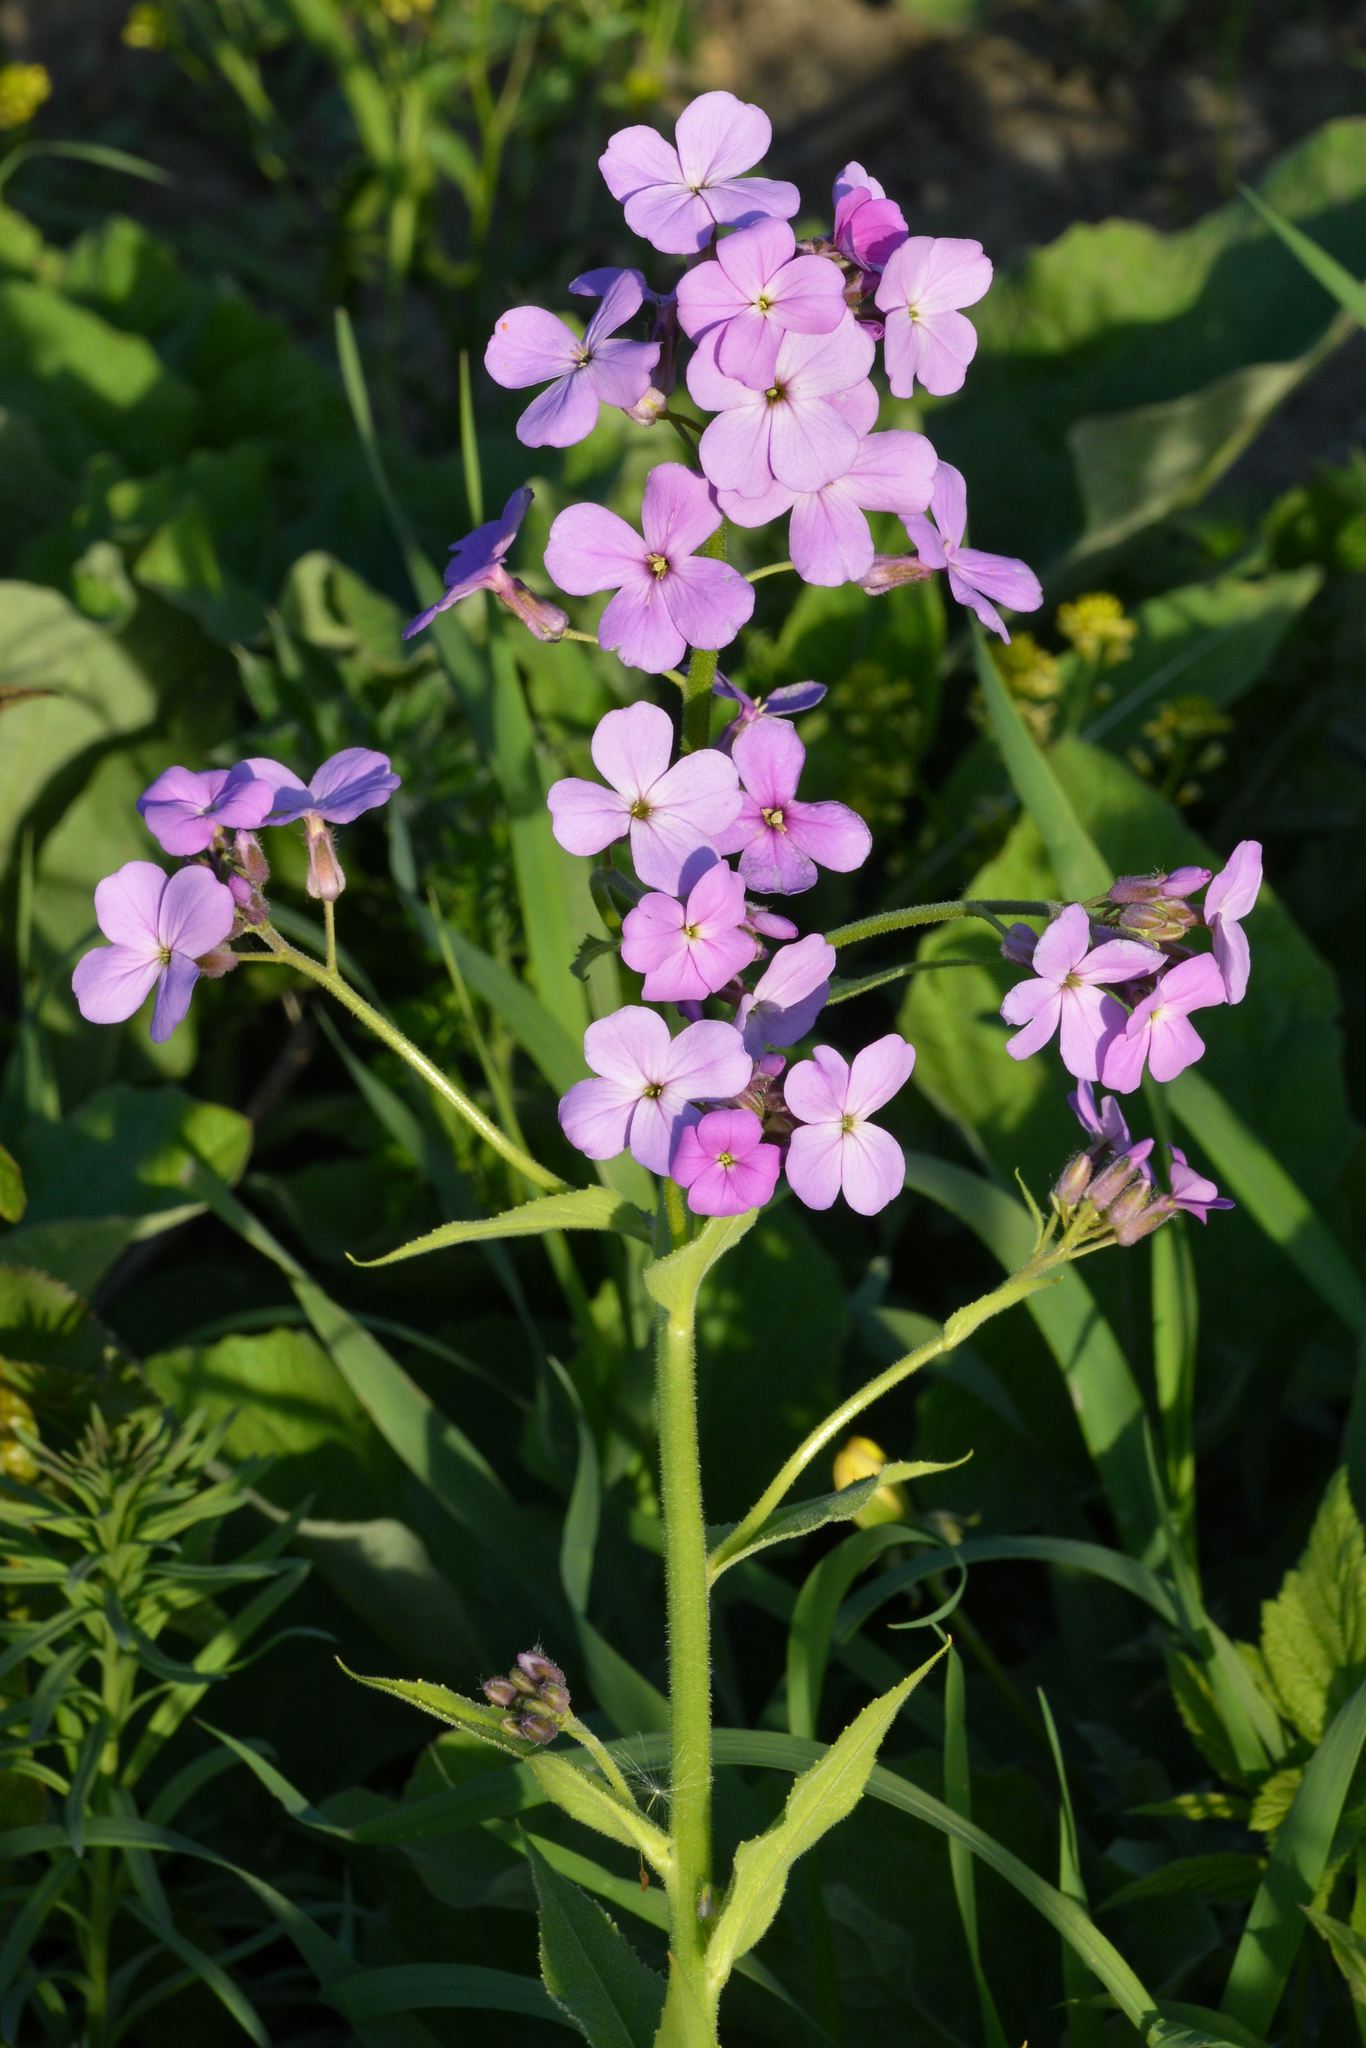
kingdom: Plantae
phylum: Tracheophyta
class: Magnoliopsida
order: Brassicales
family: Brassicaceae
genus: Hesperis
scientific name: Hesperis matronalis
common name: Dame's-violet
